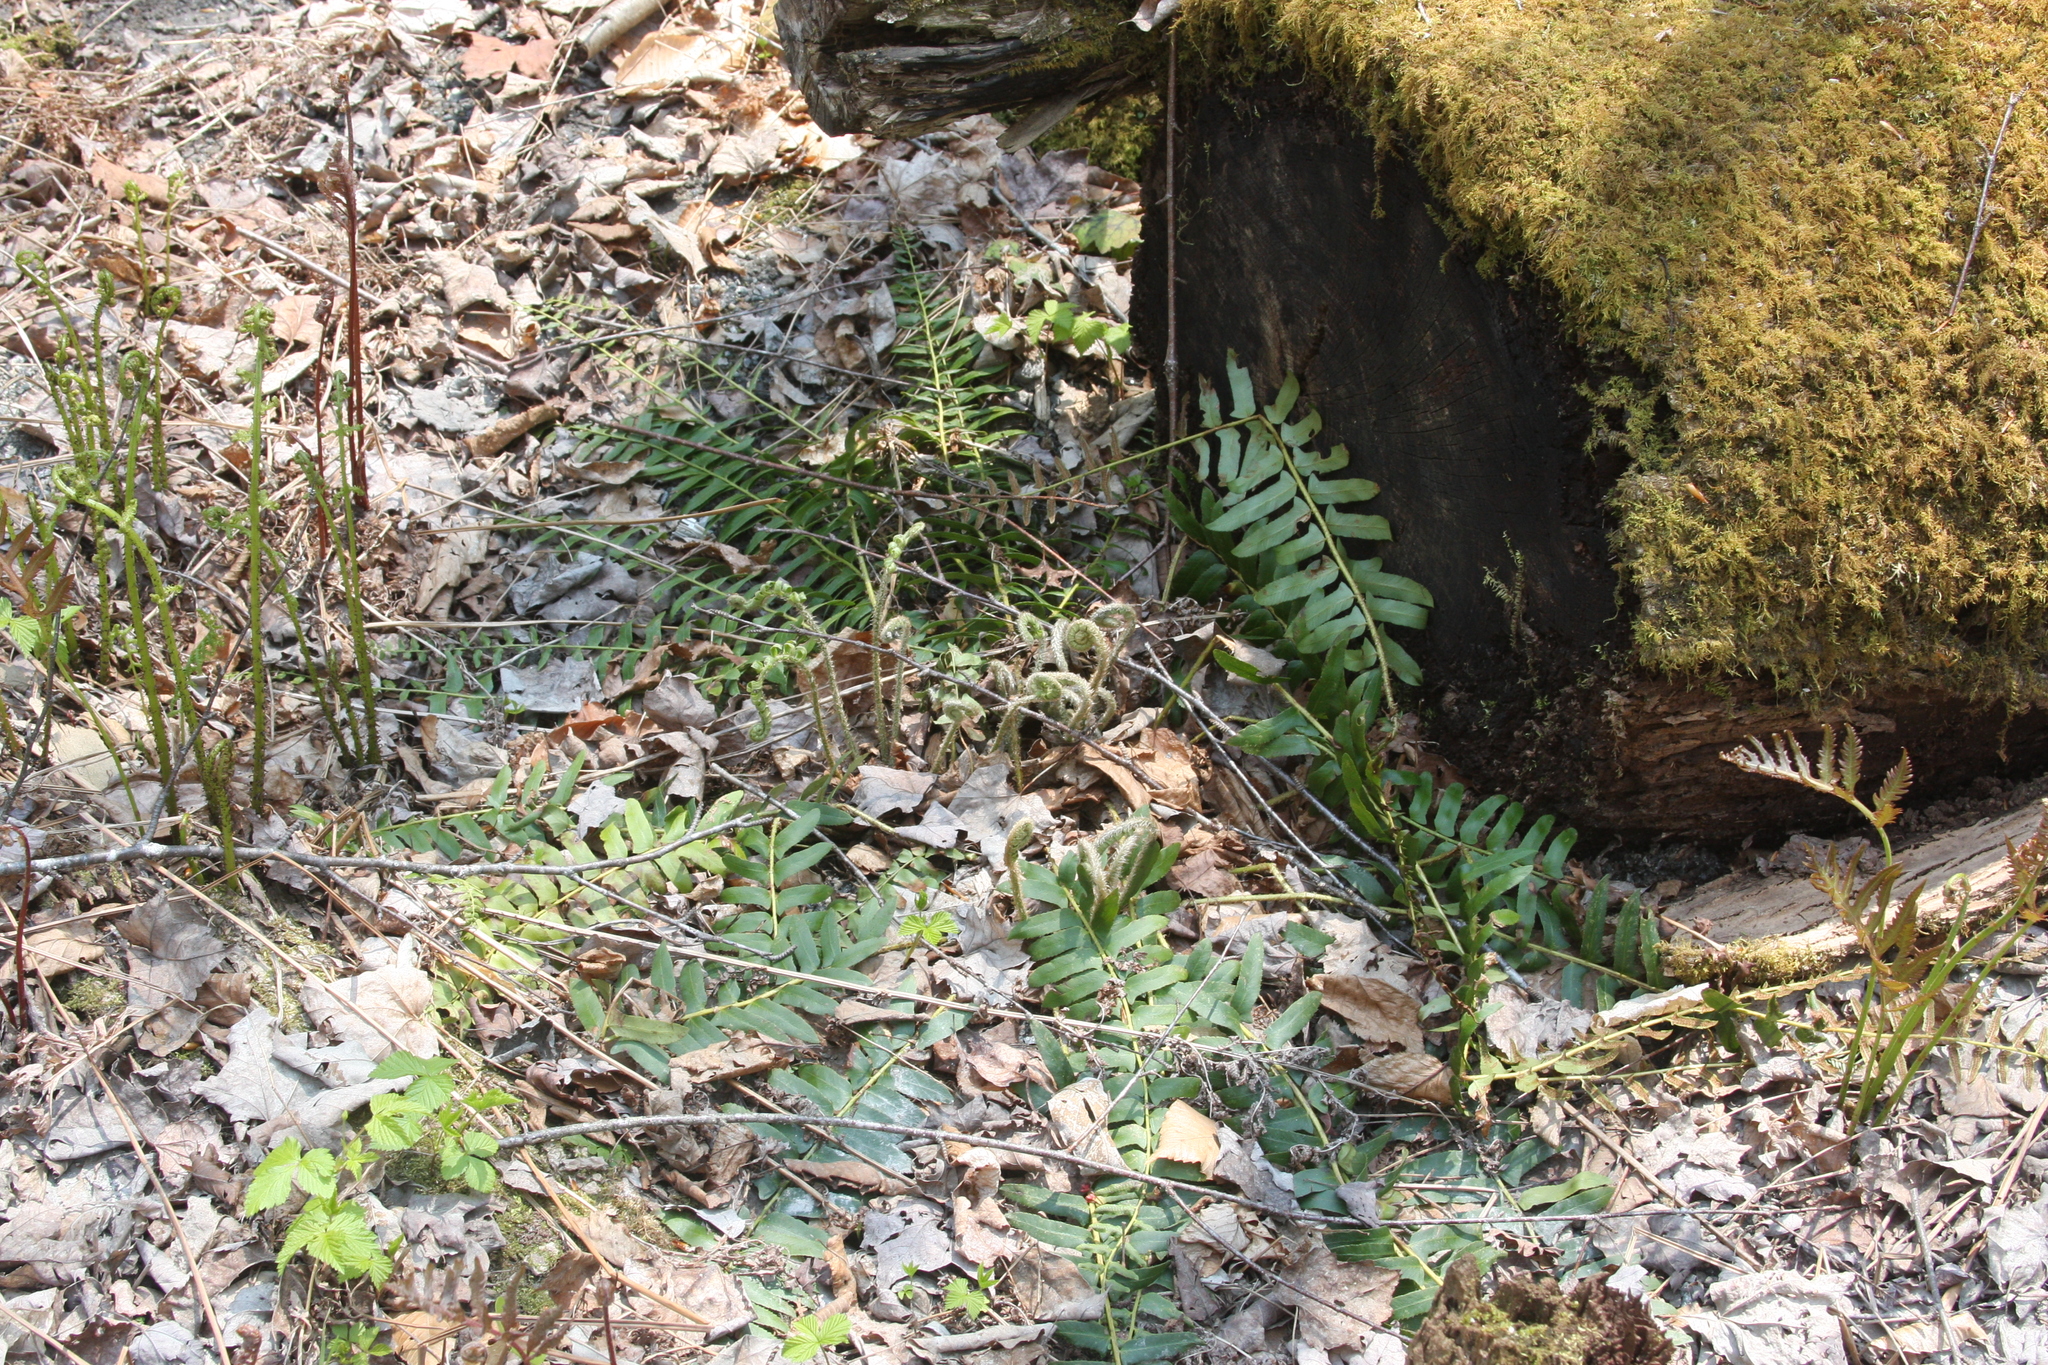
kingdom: Plantae
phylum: Tracheophyta
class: Polypodiopsida
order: Polypodiales
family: Dryopteridaceae
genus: Polystichum
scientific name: Polystichum acrostichoides
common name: Christmas fern
